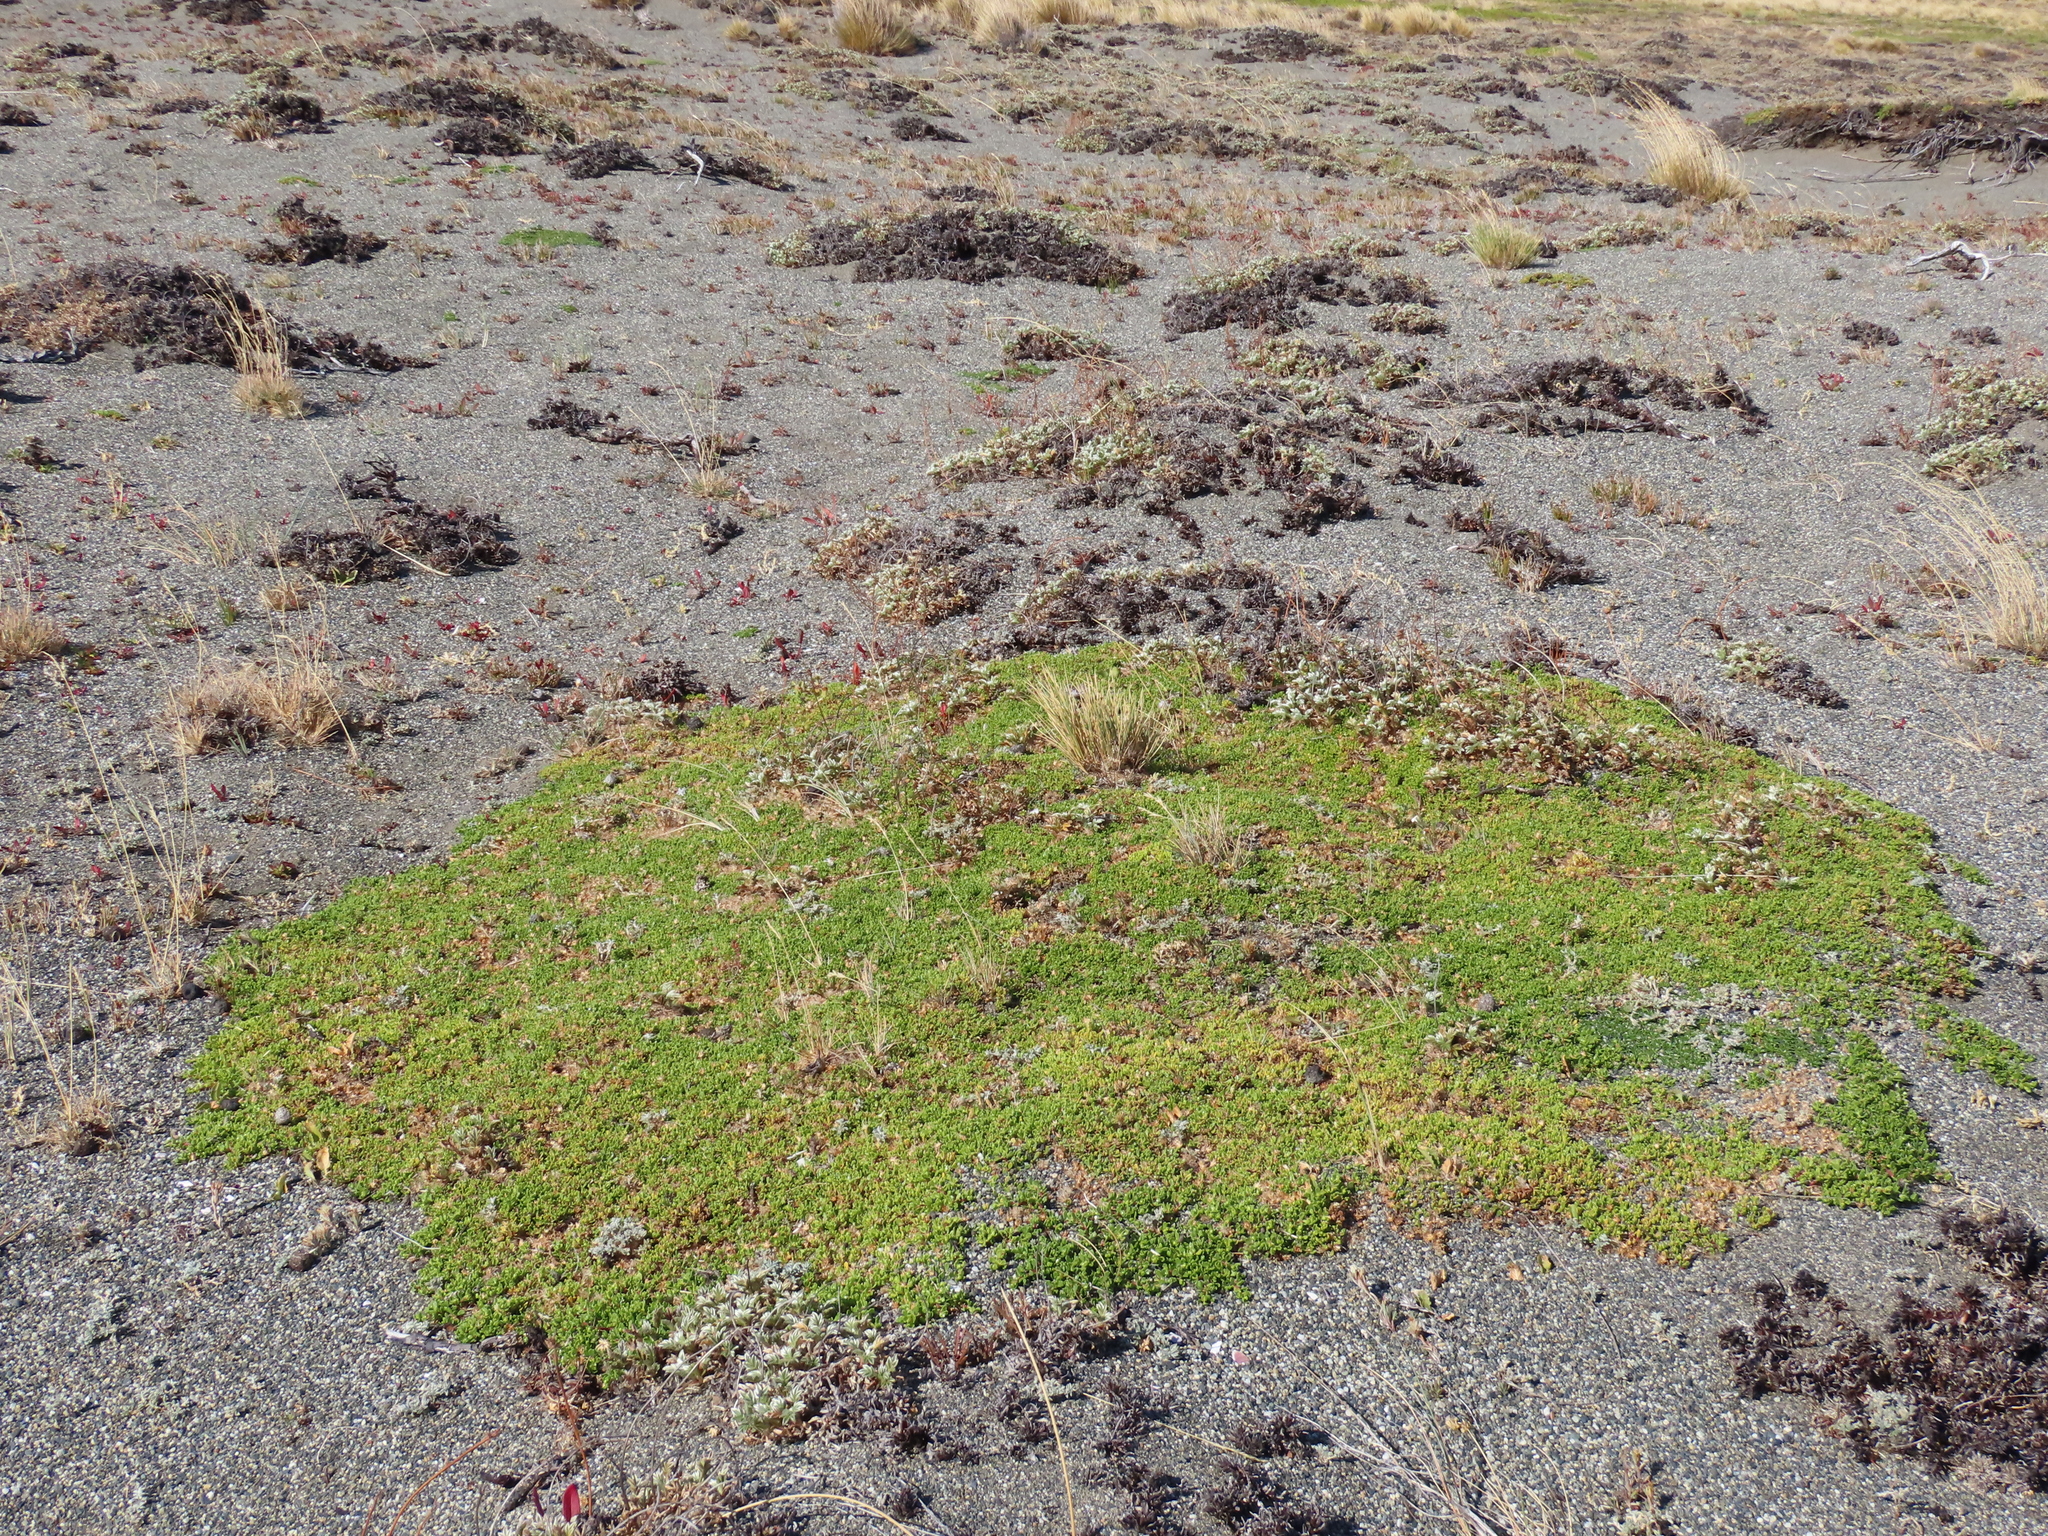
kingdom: Plantae
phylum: Tracheophyta
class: Magnoliopsida
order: Asterales
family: Asteraceae
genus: Baccharis
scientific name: Baccharis magellanica
